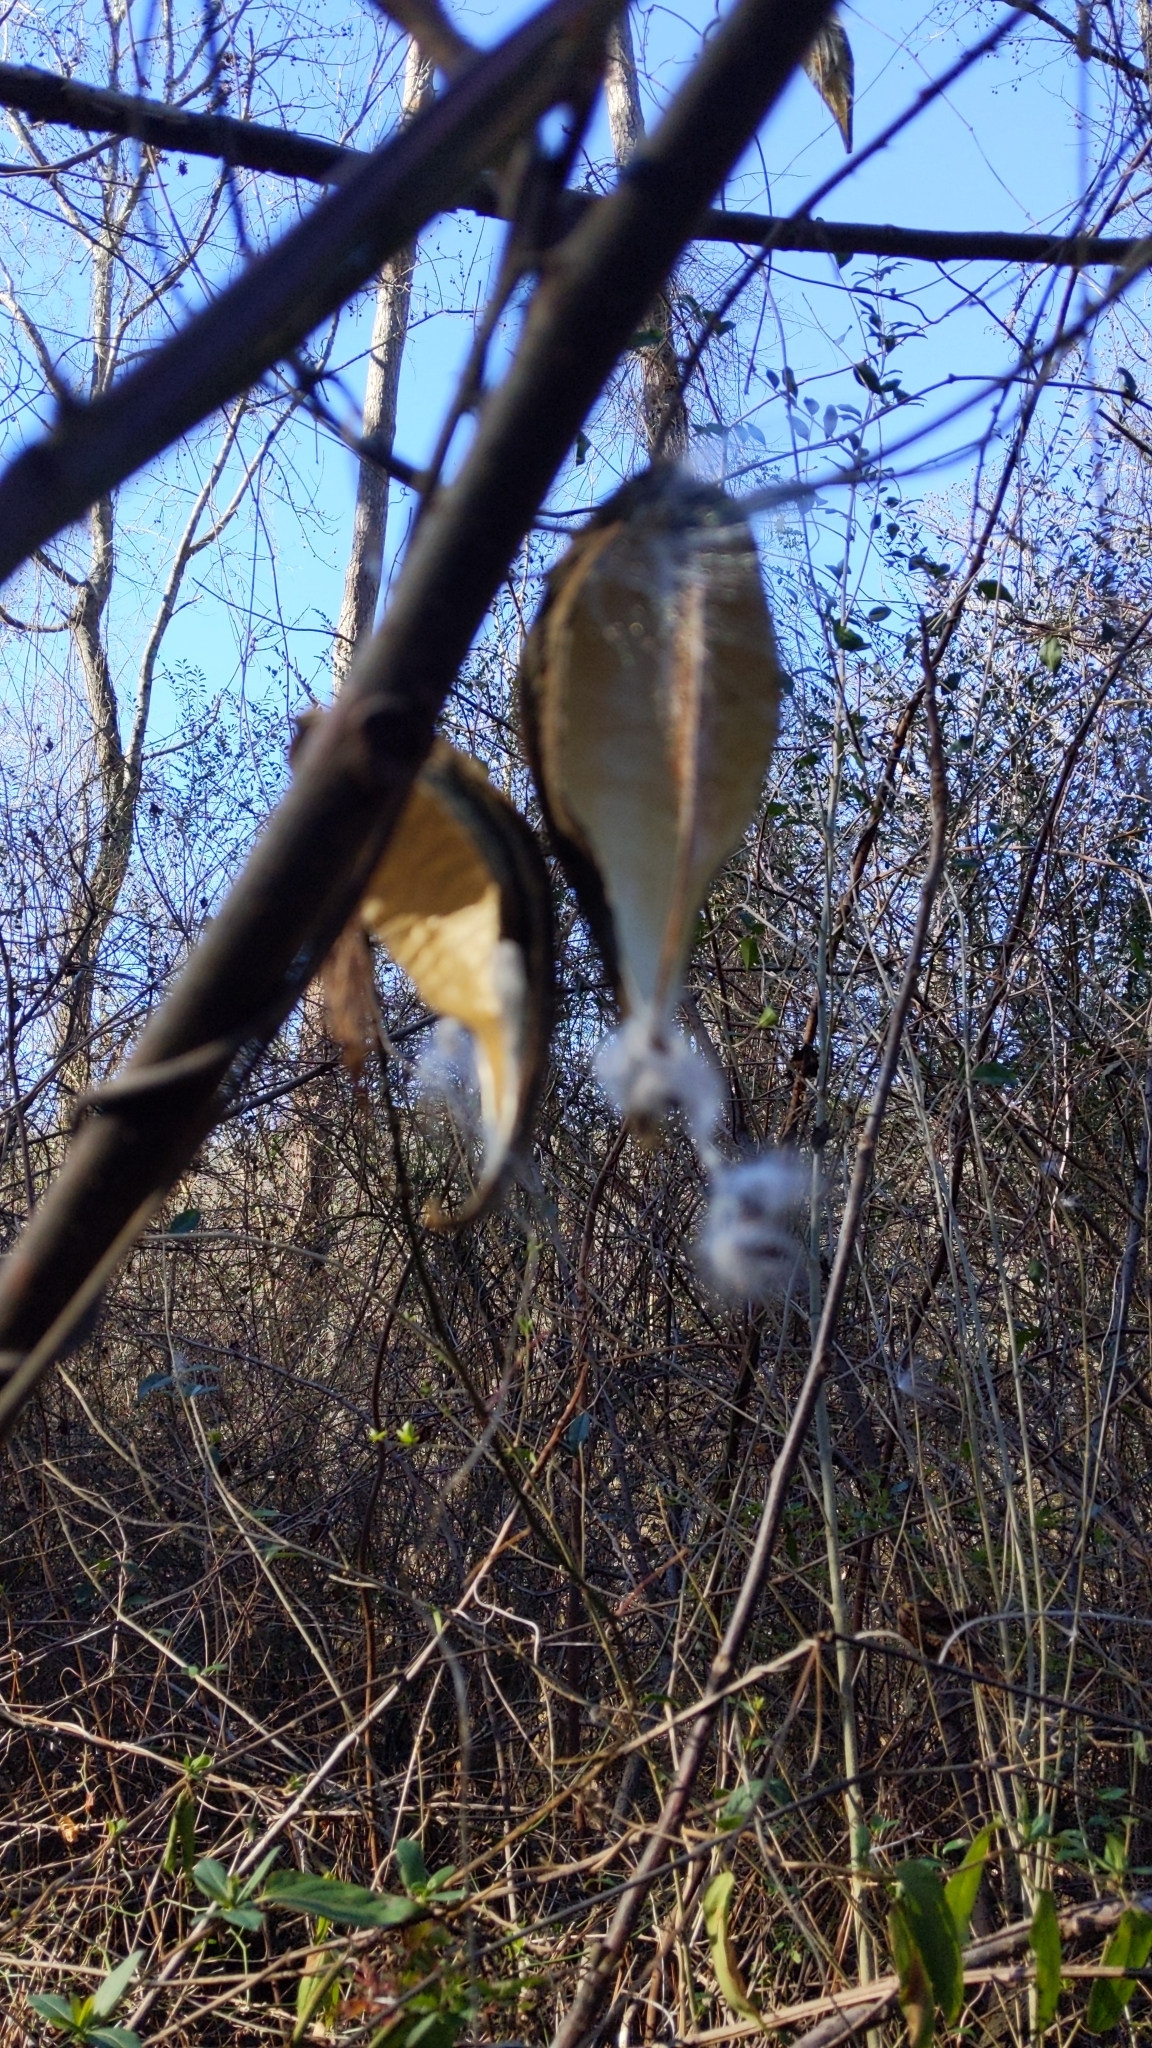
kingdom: Plantae
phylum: Tracheophyta
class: Magnoliopsida
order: Gentianales
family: Apocynaceae
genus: Gonolobus
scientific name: Gonolobus suberosus
